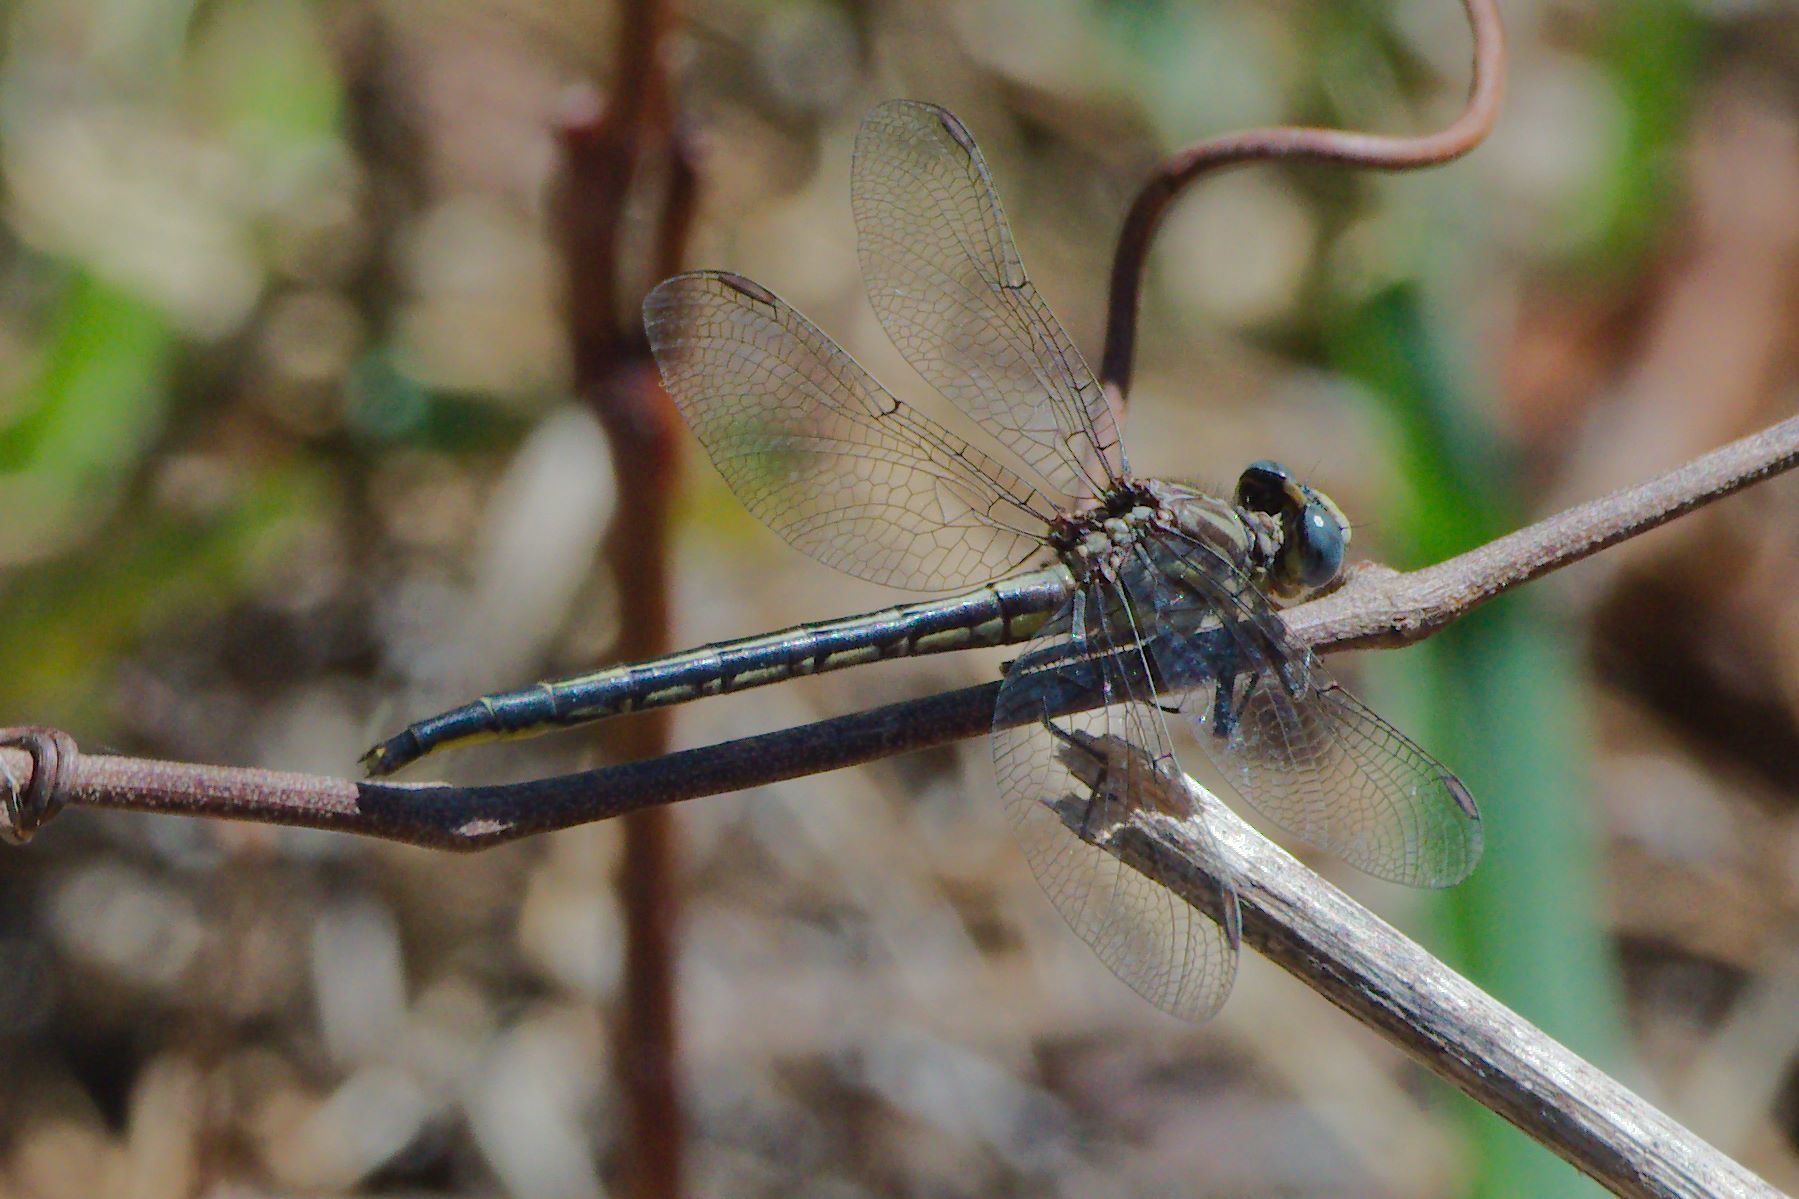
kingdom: Animalia
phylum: Arthropoda
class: Insecta
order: Odonata
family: Gomphidae
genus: Phanogomphus
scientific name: Phanogomphus westfalli
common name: Westfall’s clubtail
